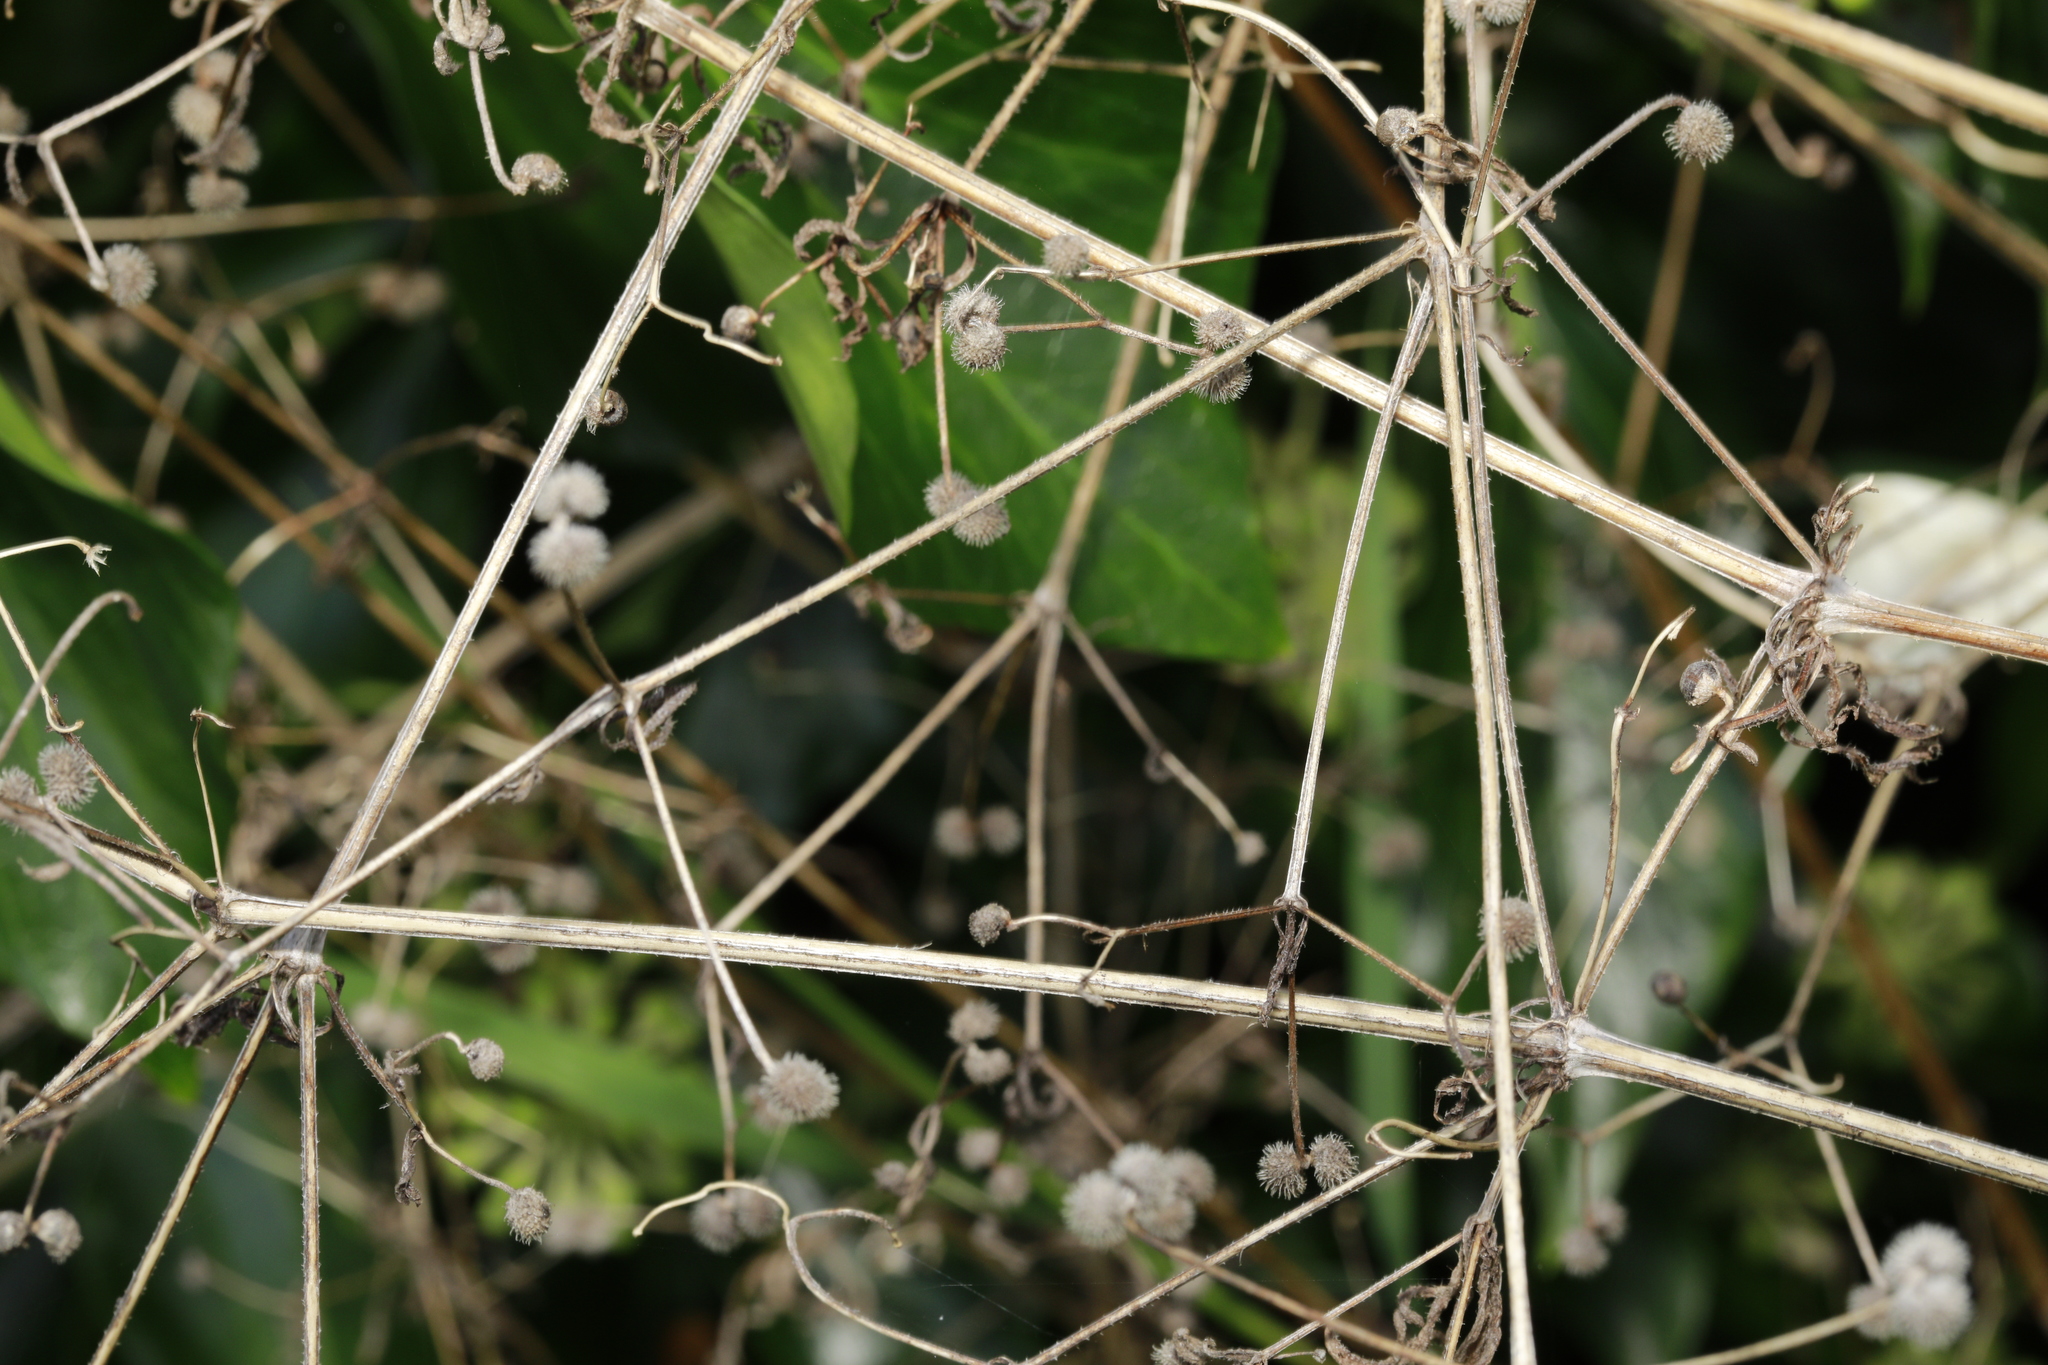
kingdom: Plantae
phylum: Tracheophyta
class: Magnoliopsida
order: Gentianales
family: Rubiaceae
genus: Galium
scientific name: Galium aparine
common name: Cleavers
